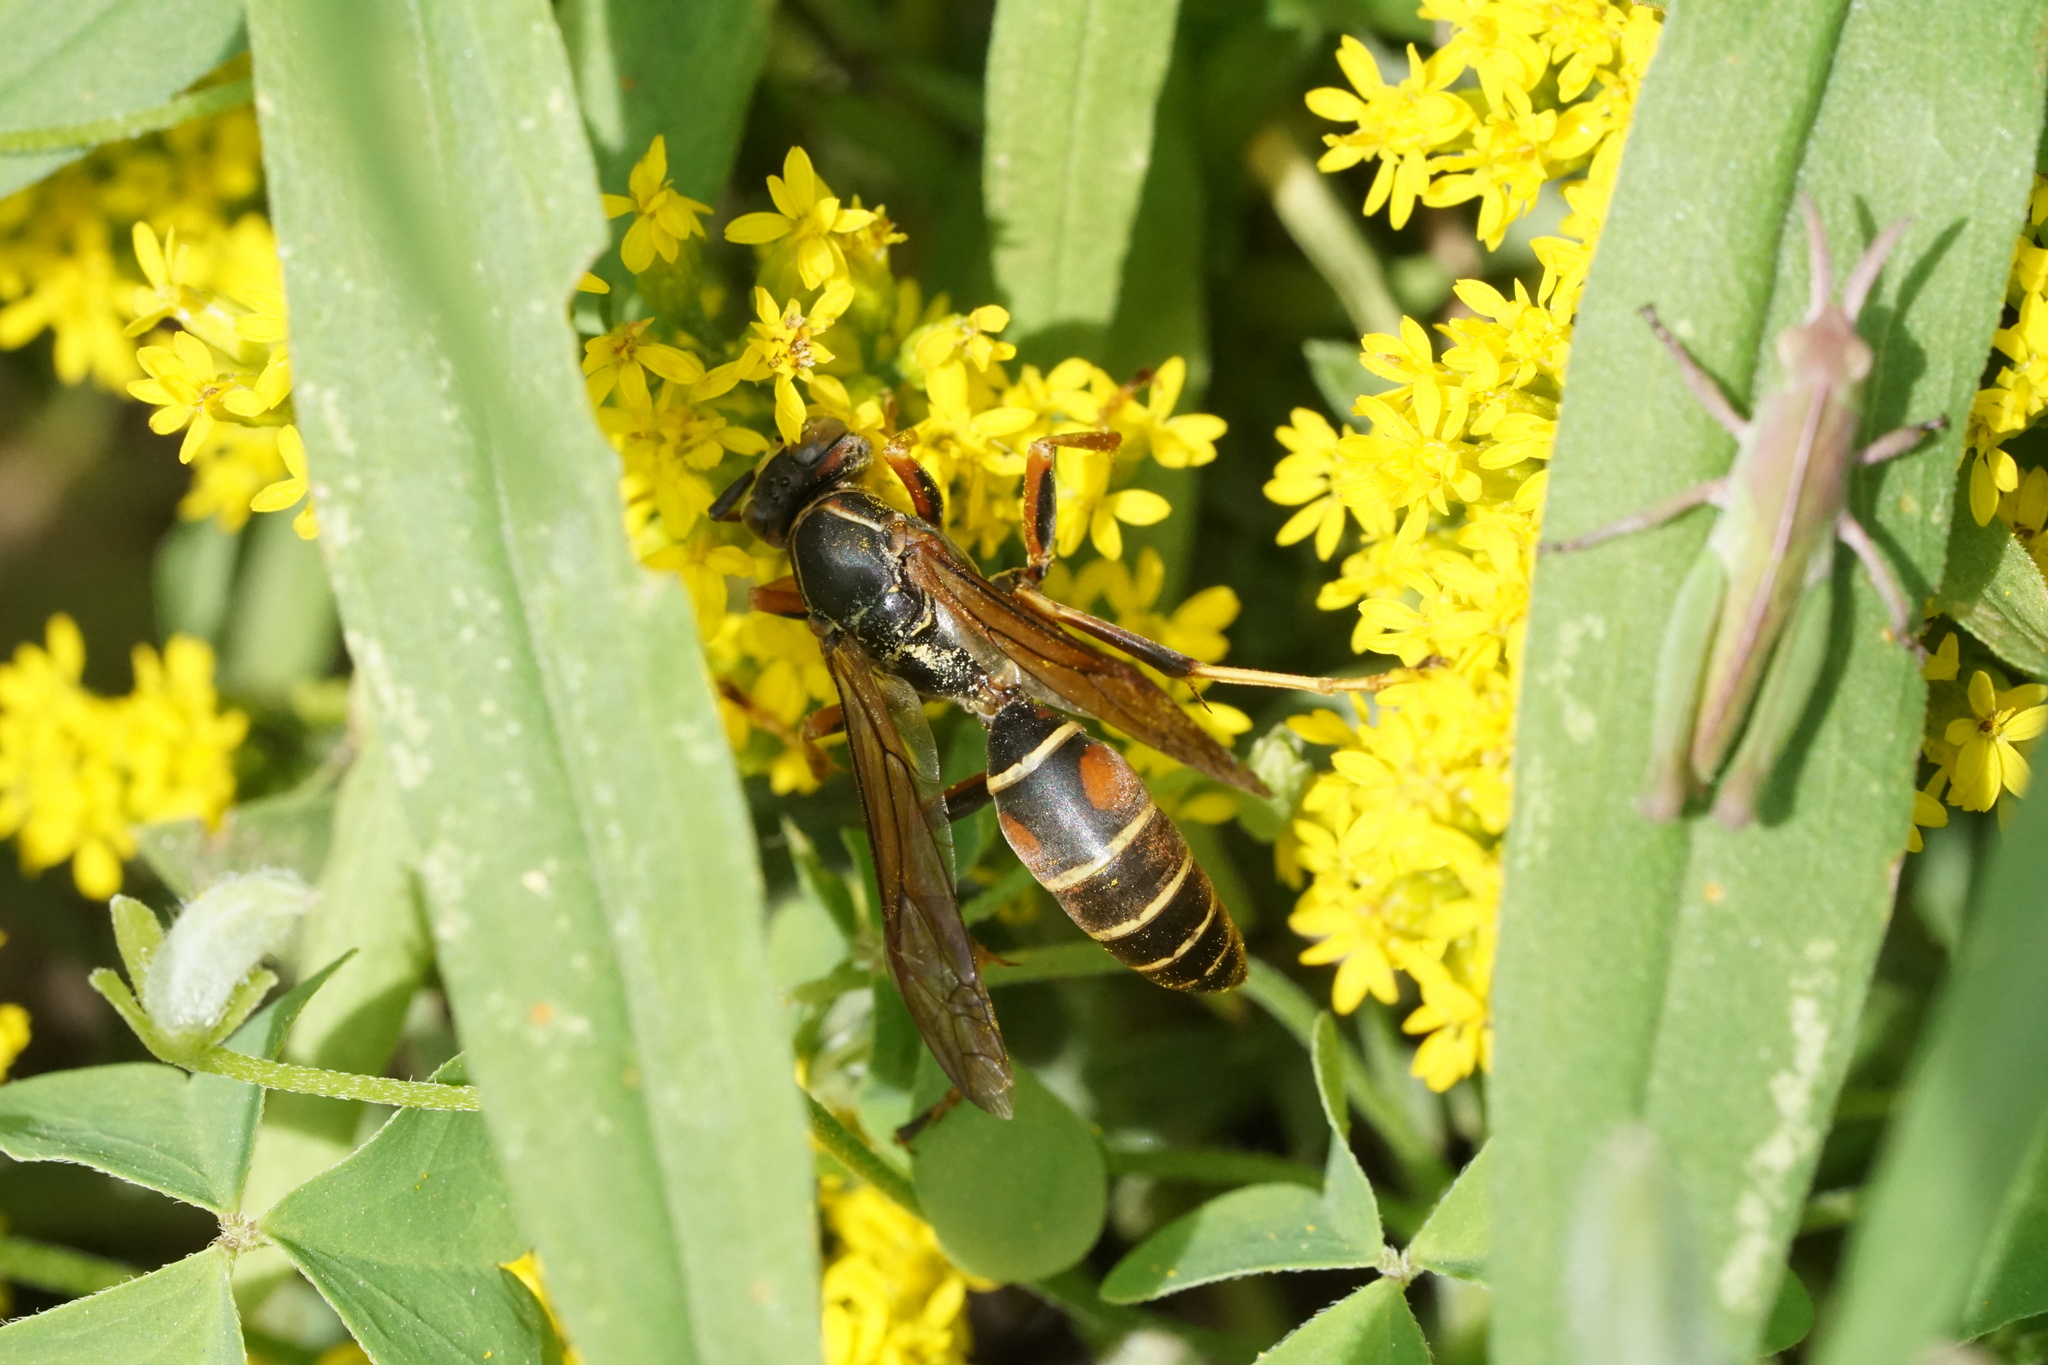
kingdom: Animalia
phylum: Arthropoda
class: Insecta
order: Hymenoptera
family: Eumenidae
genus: Polistes
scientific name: Polistes fuscatus
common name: Dark paper wasp
